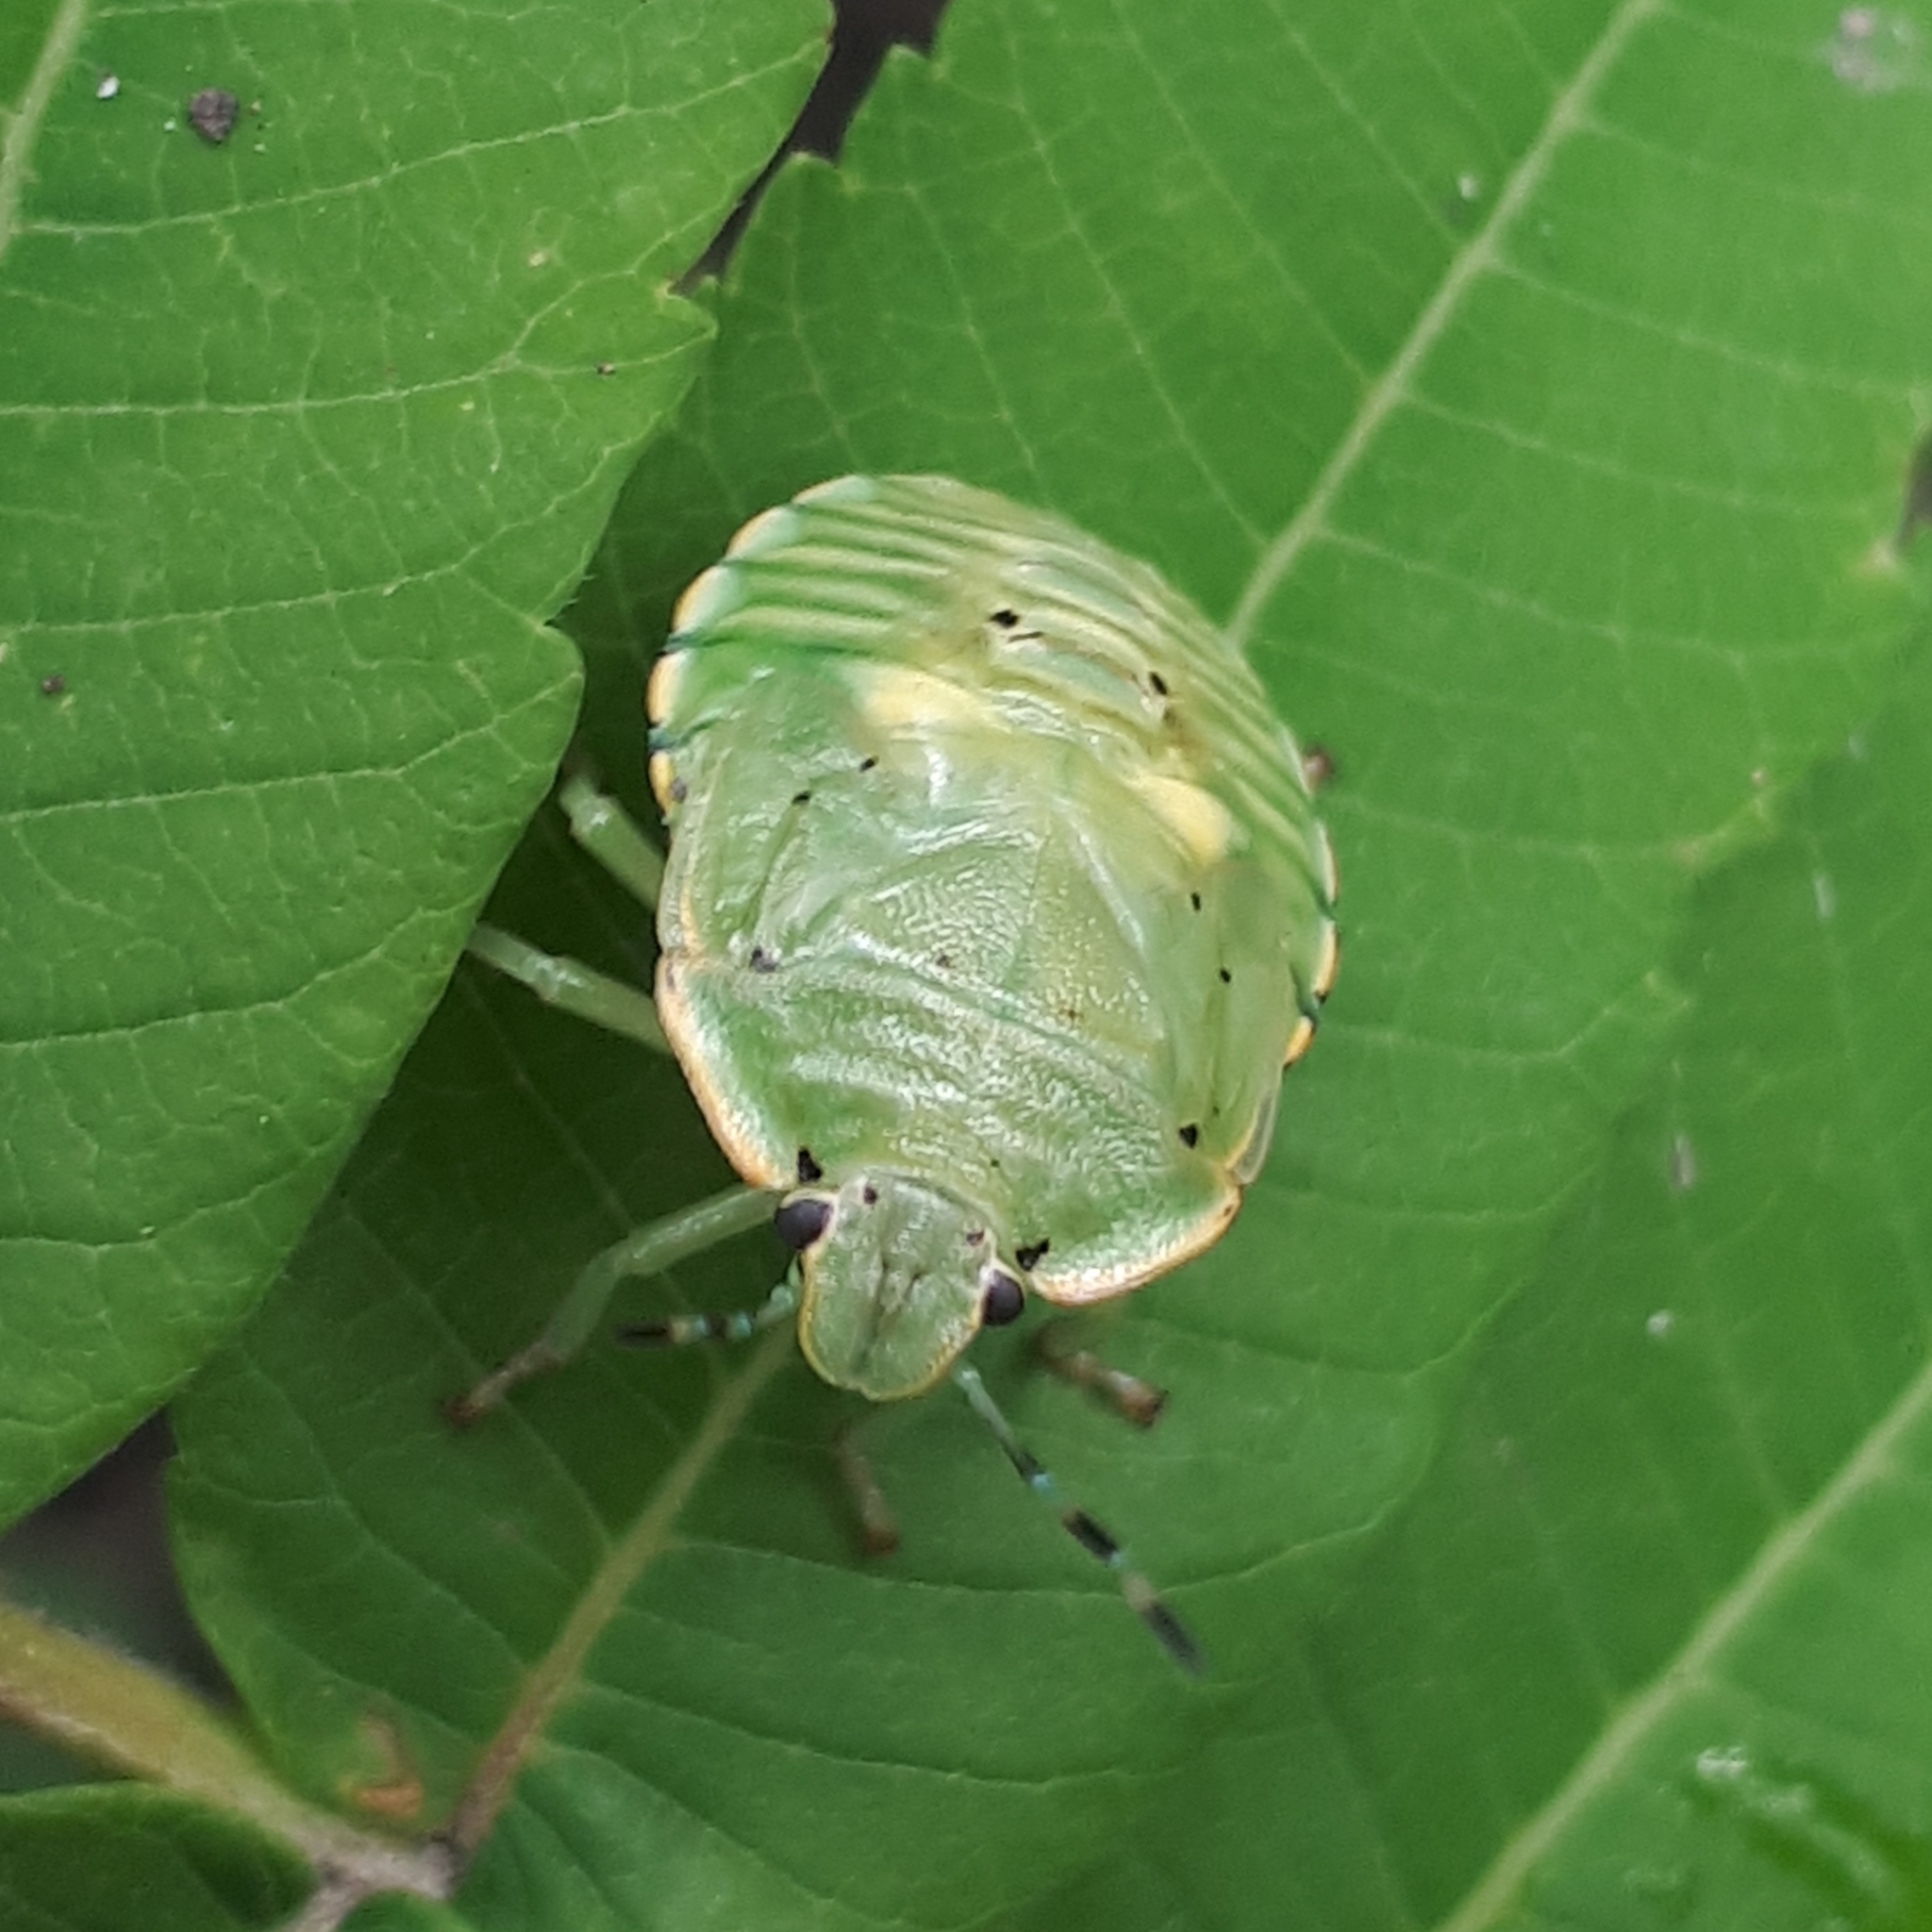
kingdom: Animalia
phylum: Arthropoda
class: Insecta
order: Hemiptera
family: Pentatomidae
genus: Chinavia
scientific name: Chinavia hilaris
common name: Green stink bug
